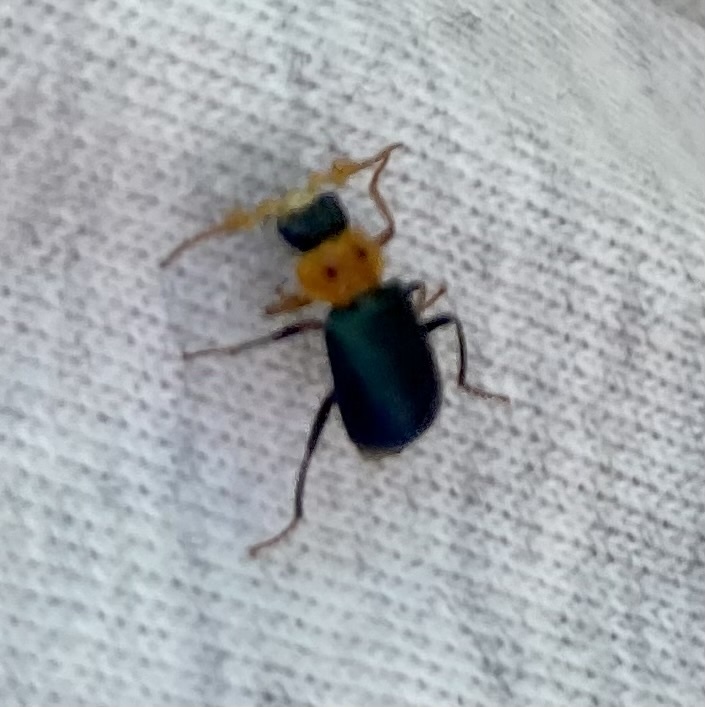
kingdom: Animalia
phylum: Arthropoda
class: Insecta
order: Coleoptera
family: Melyridae
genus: Collops
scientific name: Collops bipunctatus
